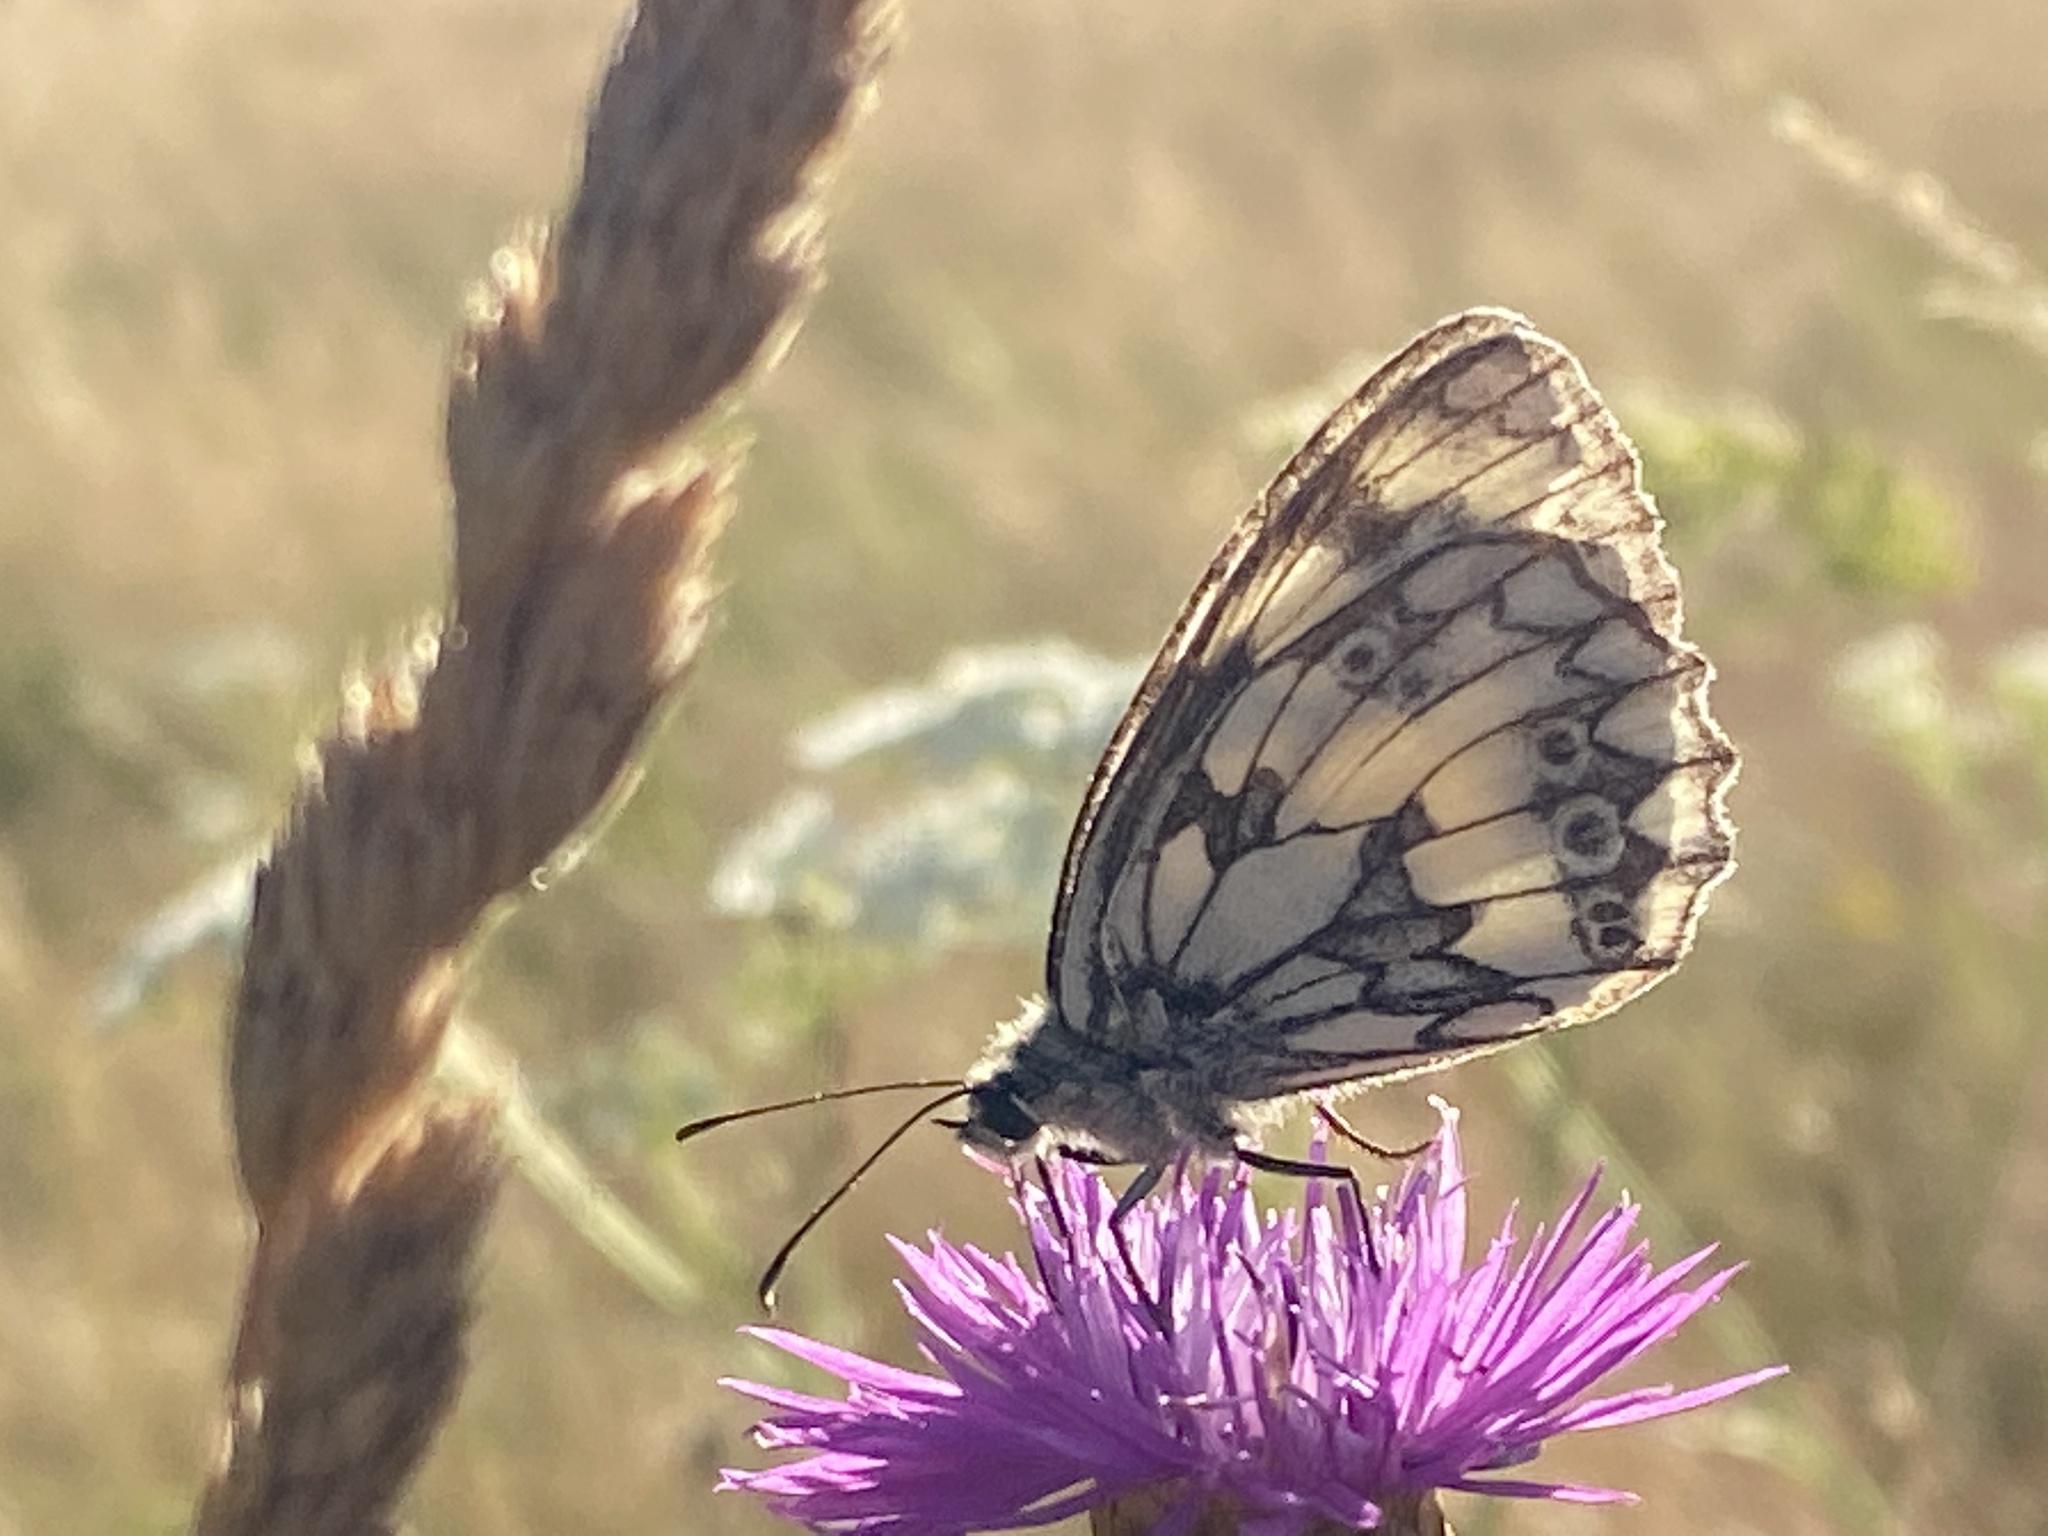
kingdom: Animalia
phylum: Arthropoda
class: Insecta
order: Lepidoptera
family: Nymphalidae
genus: Melanargia
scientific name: Melanargia galathea
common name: Marbled white
